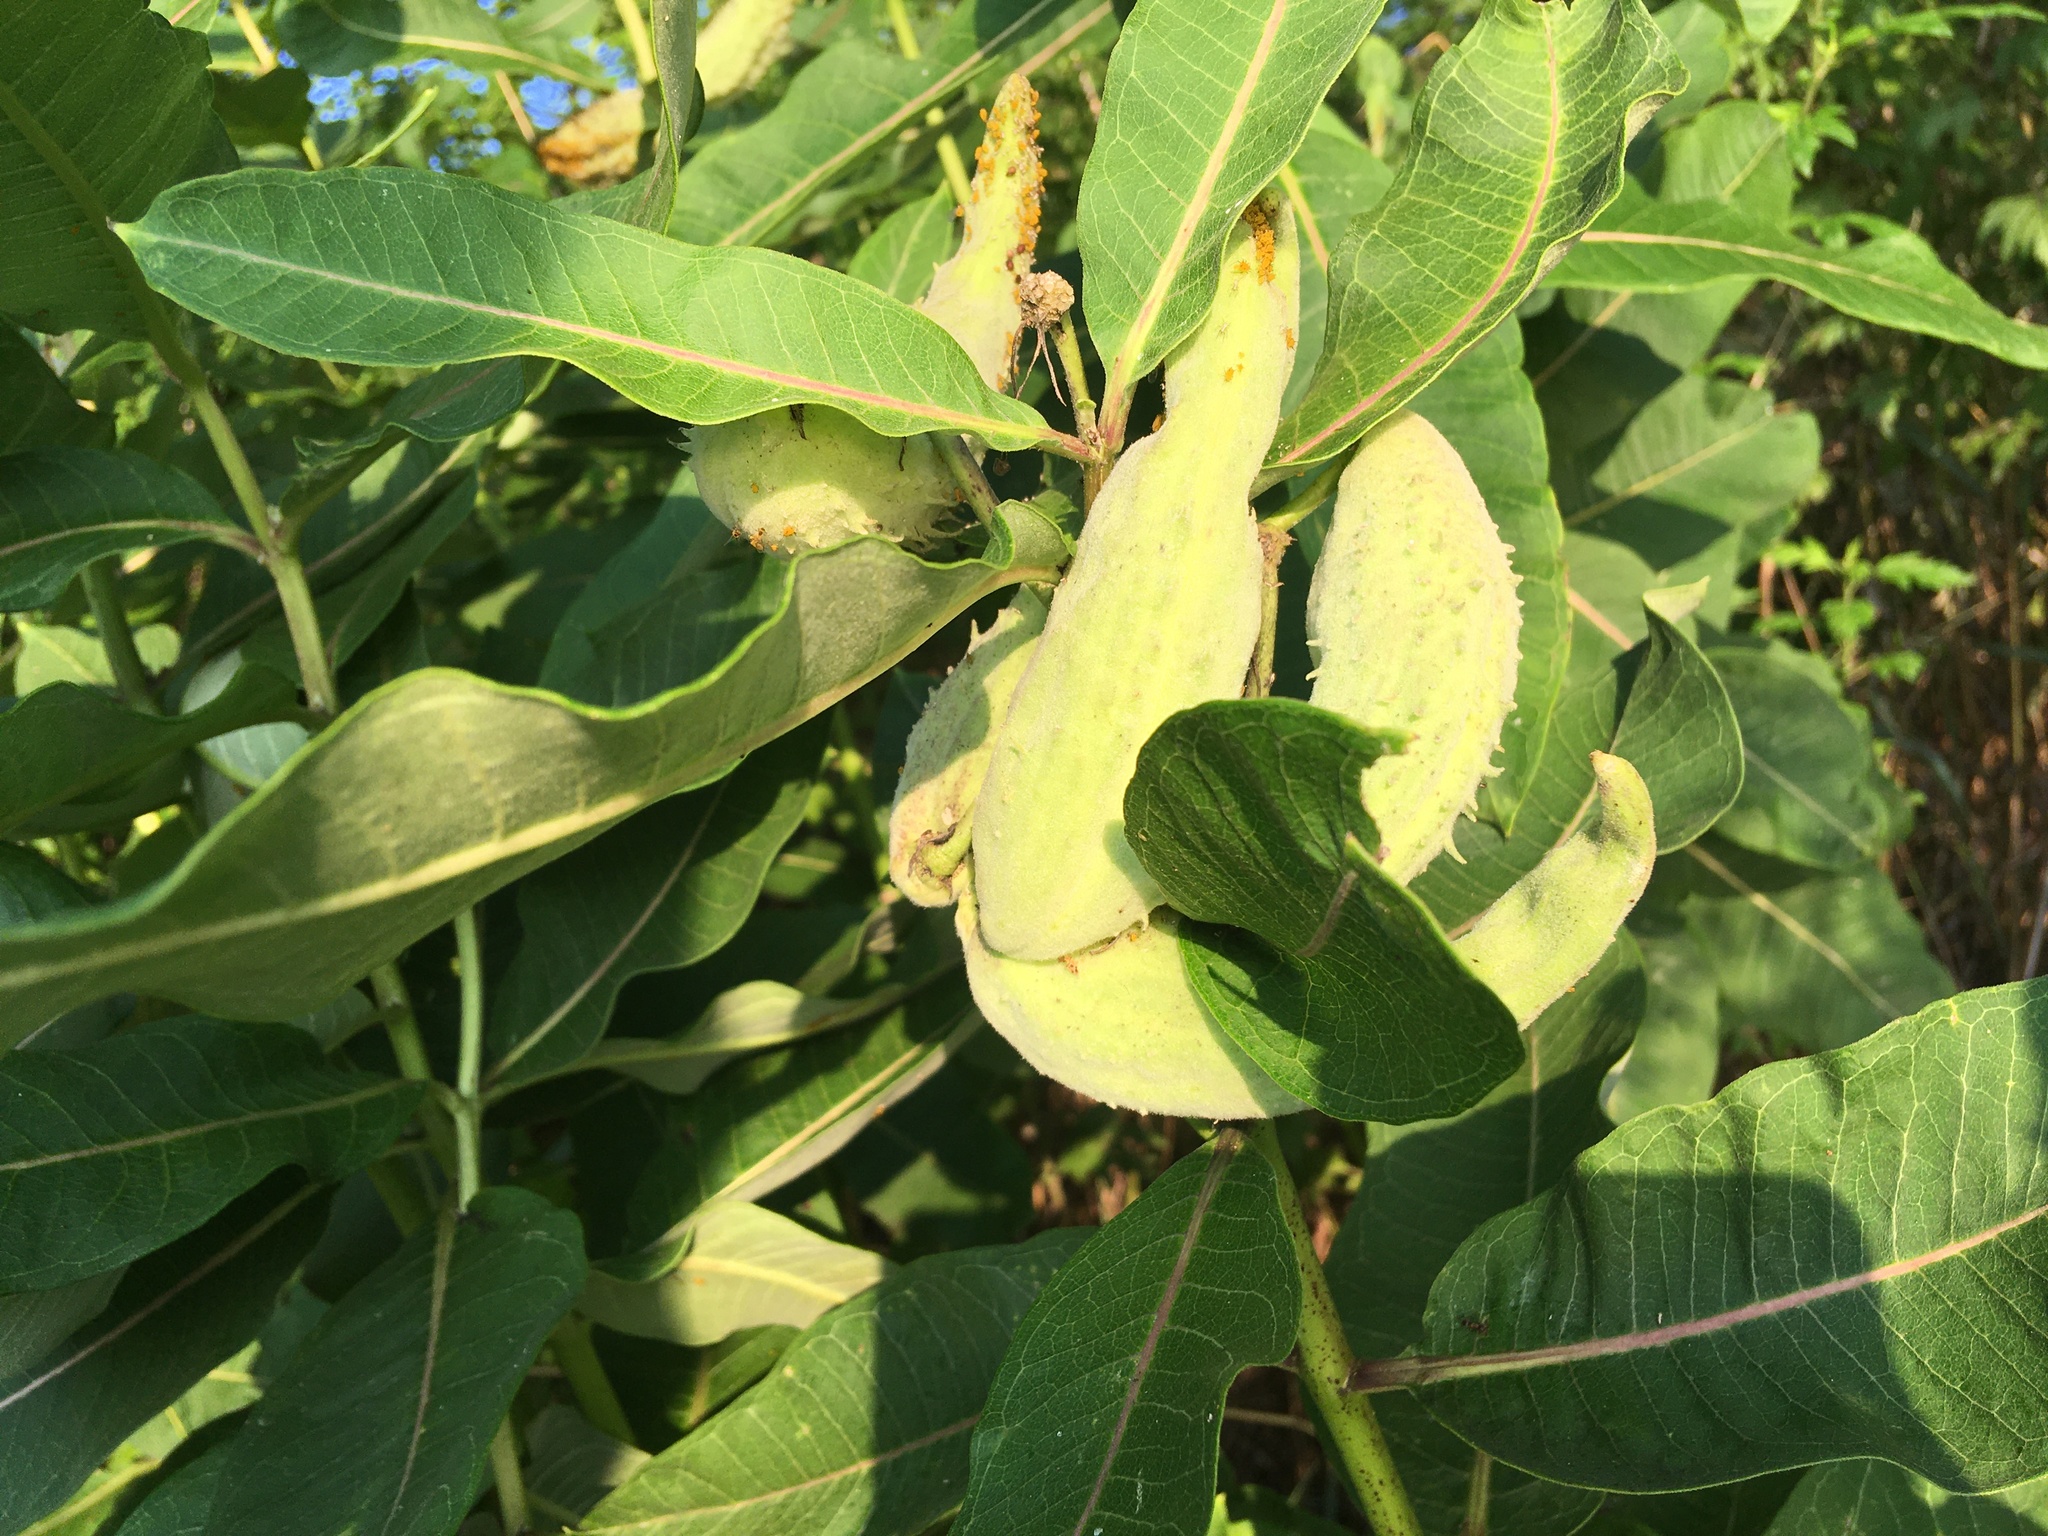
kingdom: Plantae
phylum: Tracheophyta
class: Magnoliopsida
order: Gentianales
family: Apocynaceae
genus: Asclepias
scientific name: Asclepias syriaca
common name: Common milkweed
